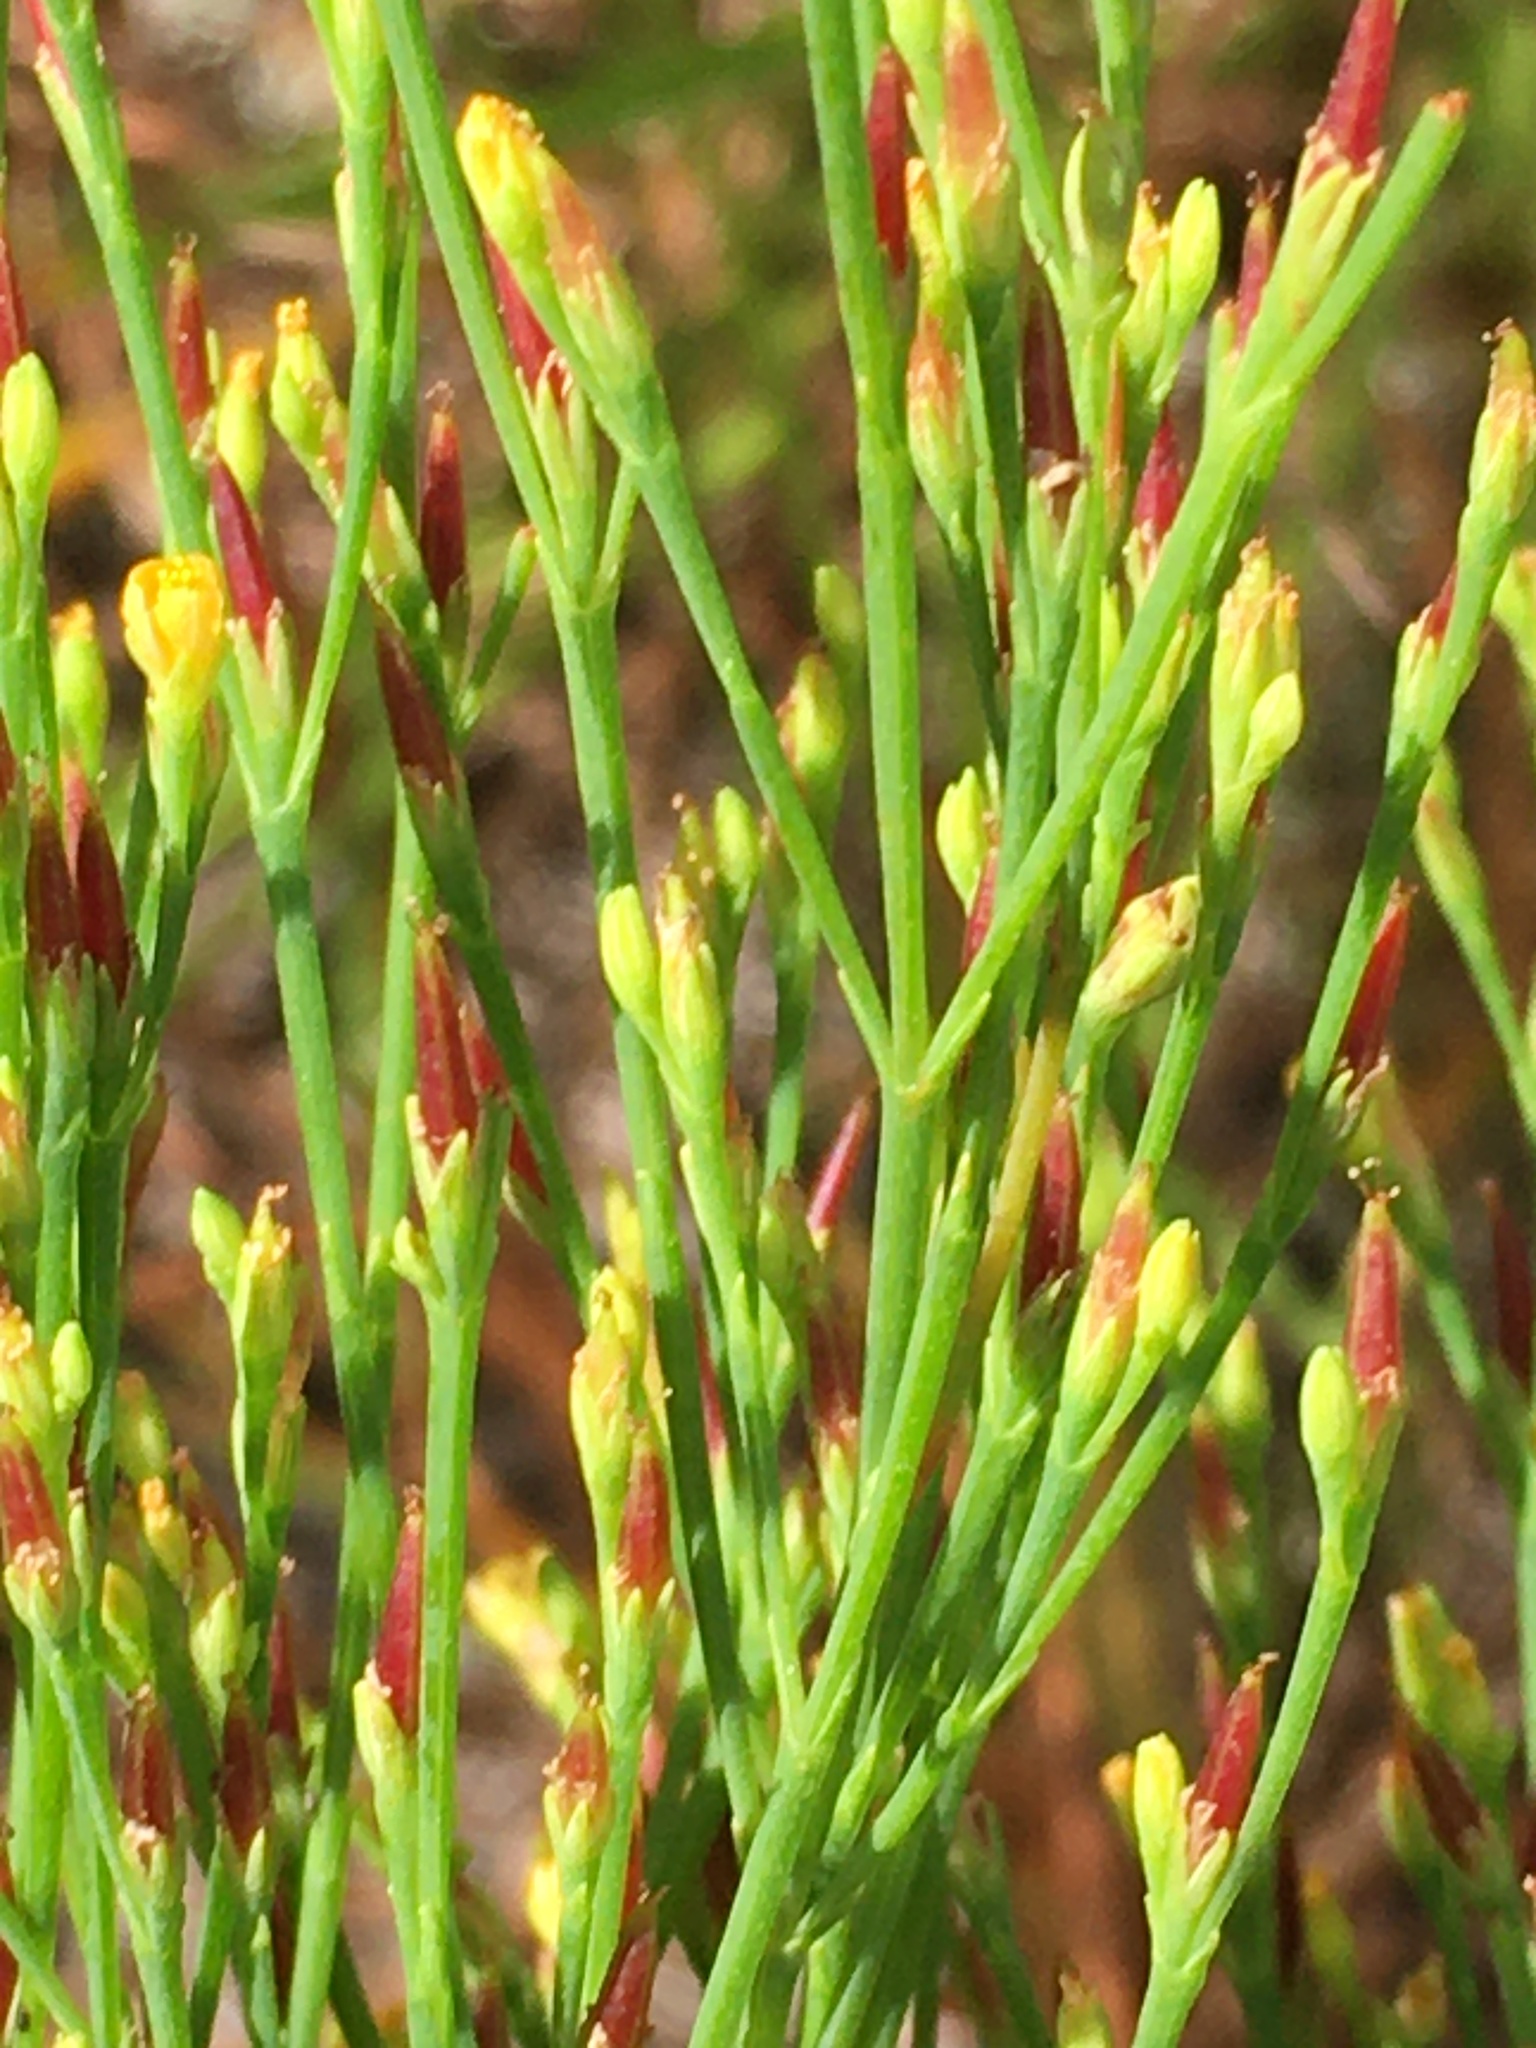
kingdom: Plantae
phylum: Tracheophyta
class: Magnoliopsida
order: Malpighiales
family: Hypericaceae
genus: Hypericum
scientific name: Hypericum gentianoides
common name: Gentian-leaved st. john's-wort
